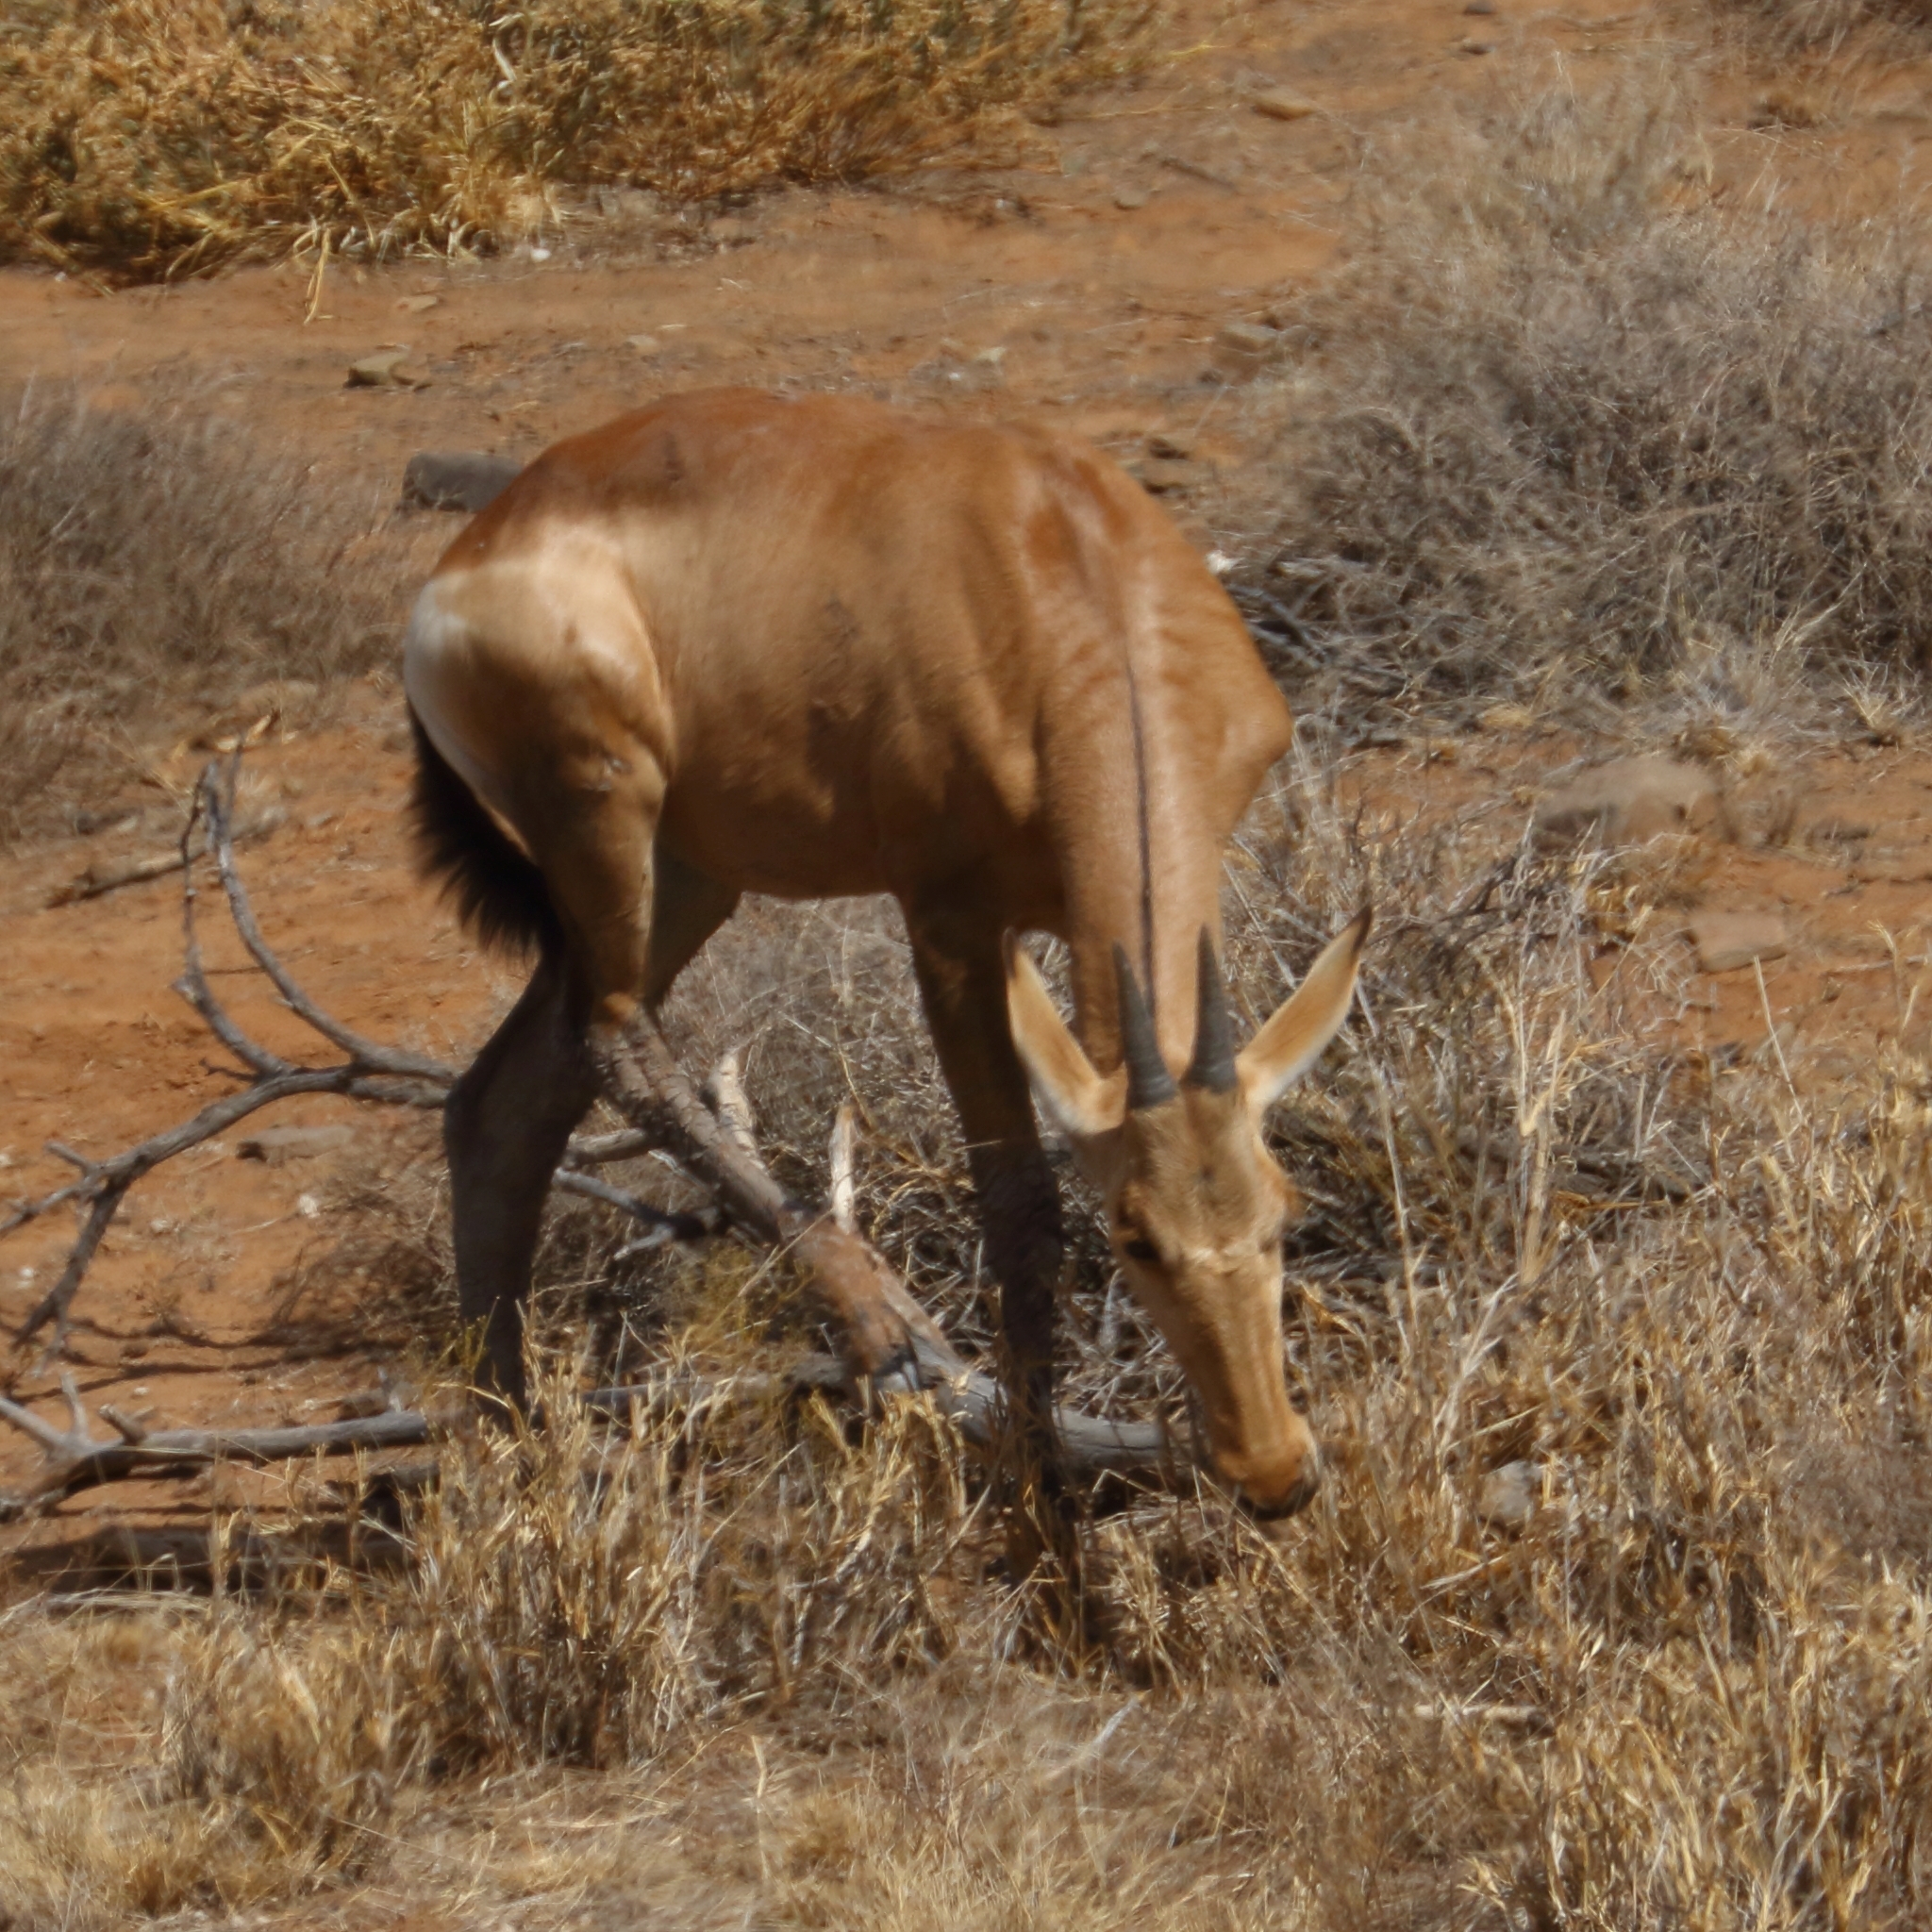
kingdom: Animalia
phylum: Chordata
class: Mammalia
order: Artiodactyla
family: Bovidae
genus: Alcelaphus
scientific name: Alcelaphus caama
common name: Red hartebeest
